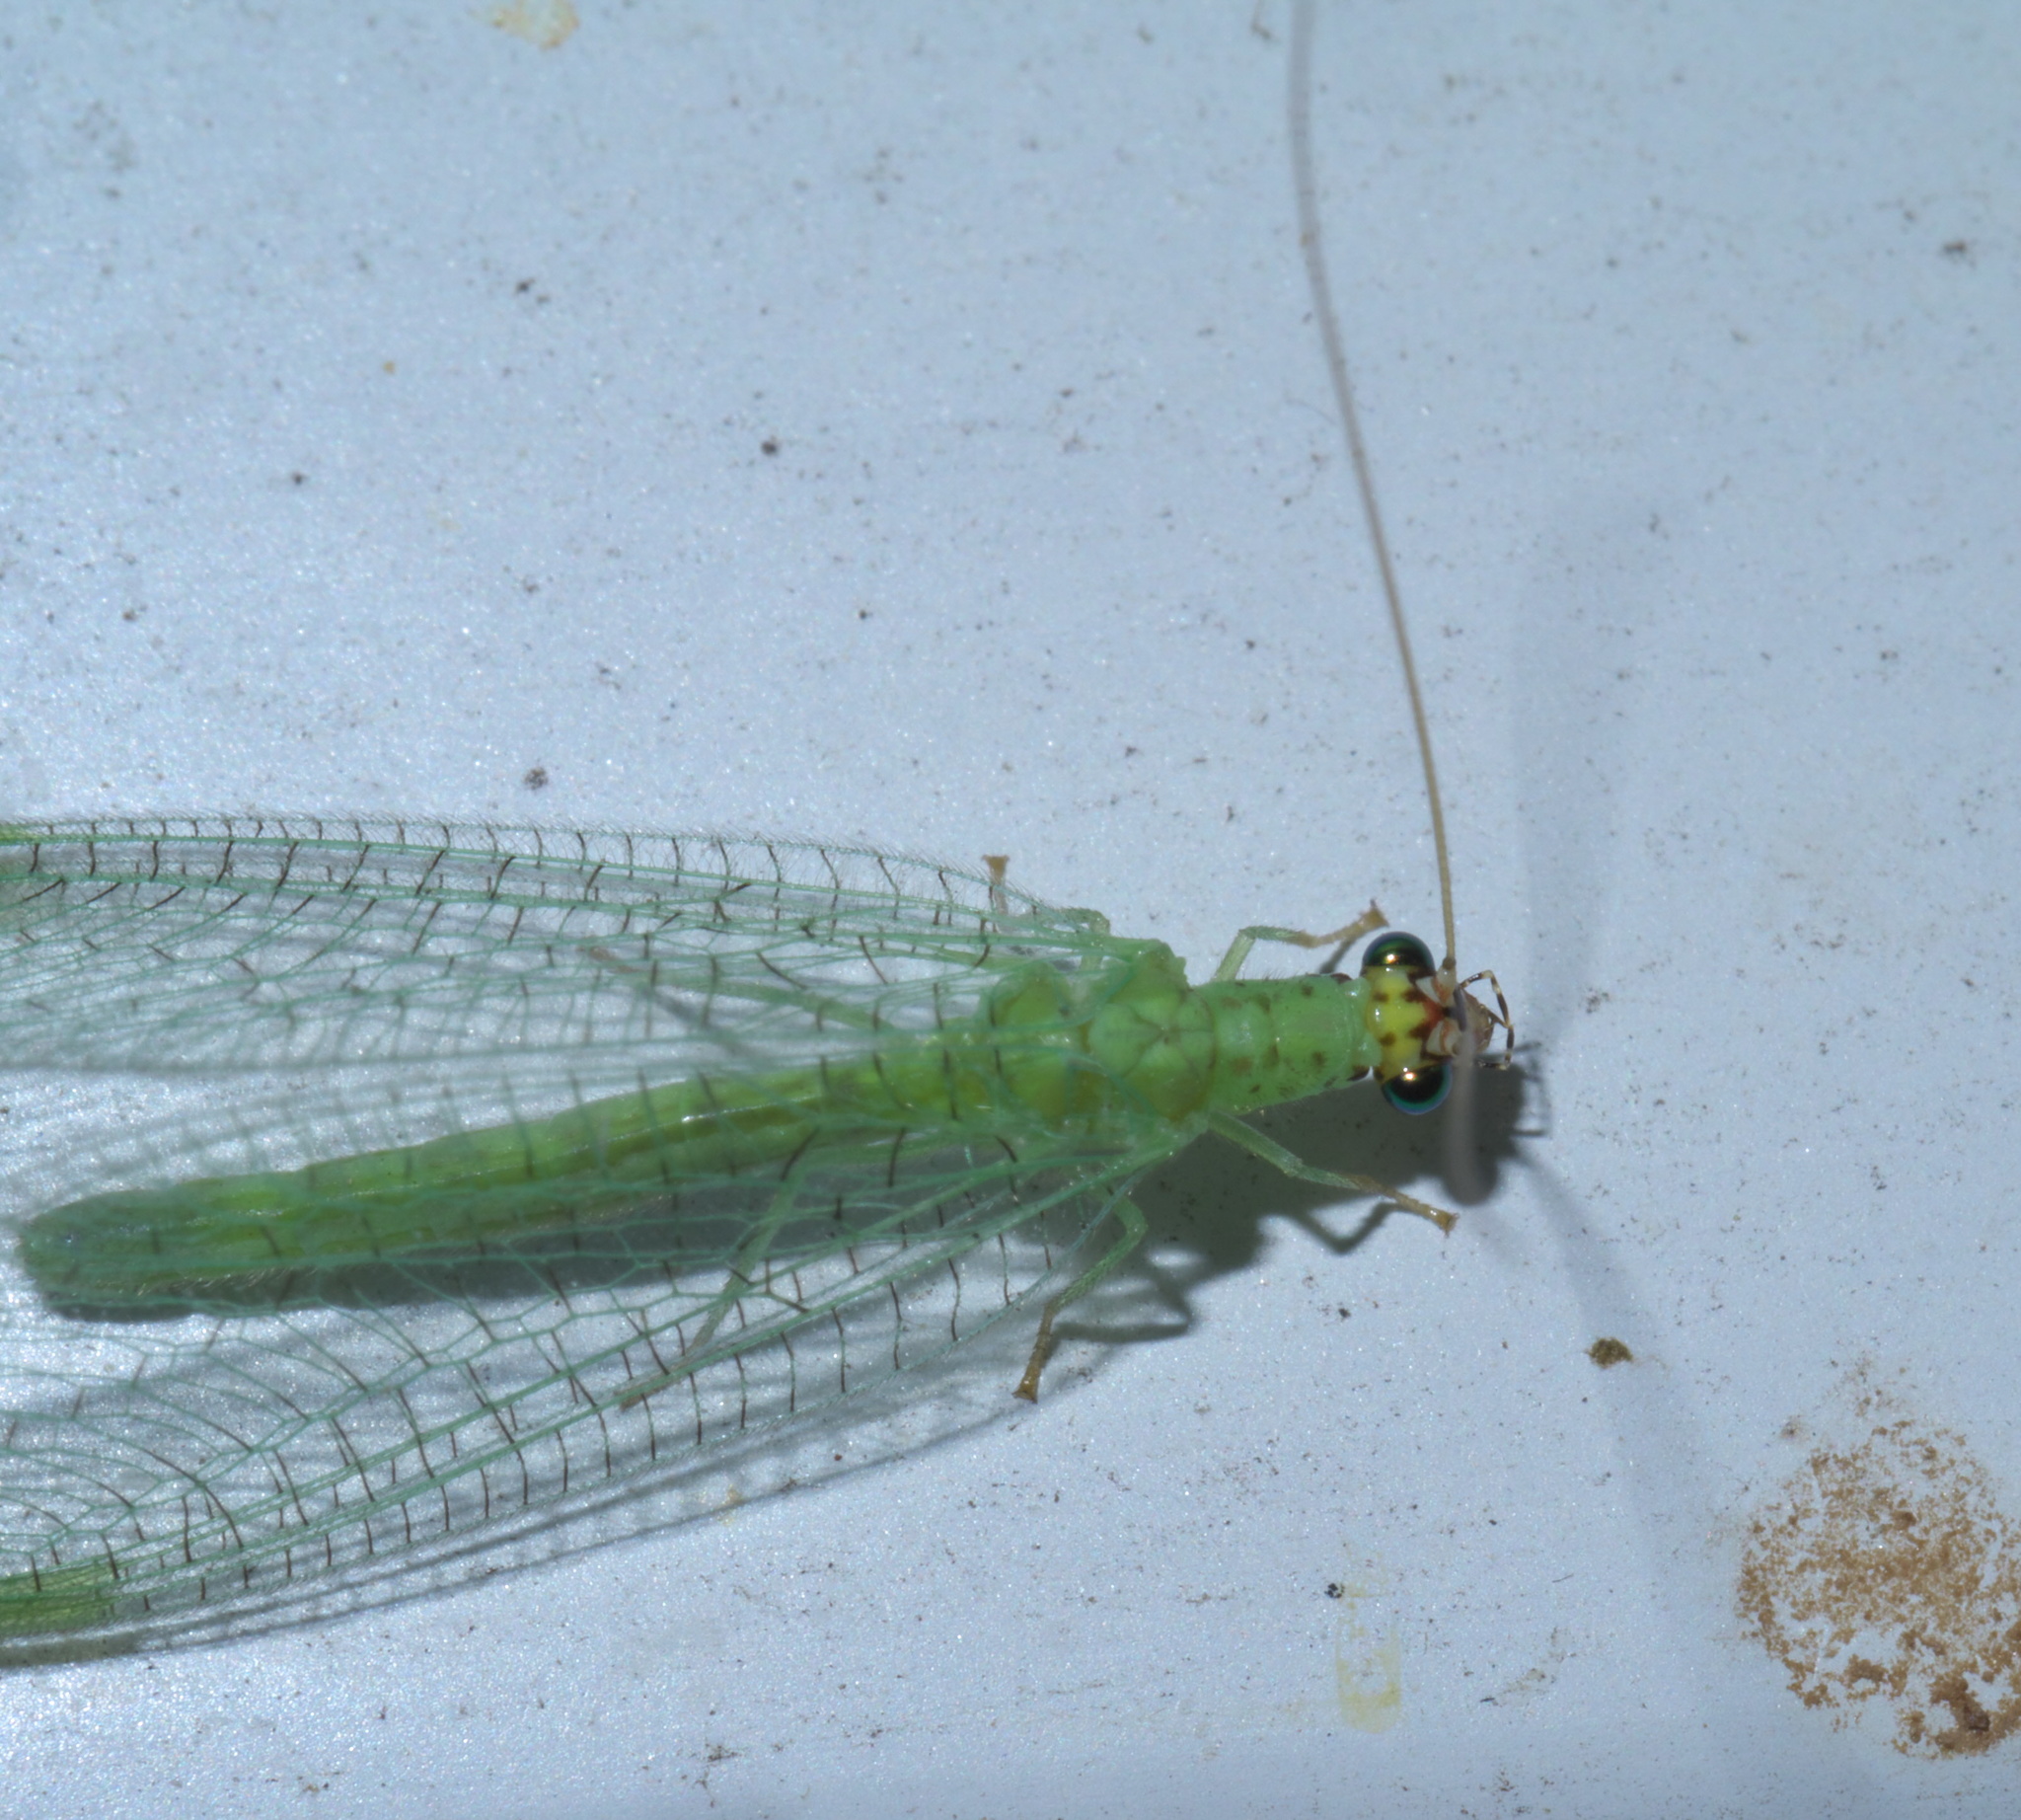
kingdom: Animalia
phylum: Arthropoda
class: Insecta
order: Neuroptera
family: Chrysopidae
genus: Chrysopa
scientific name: Chrysopa oculata
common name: Golden-eyed lacewing
